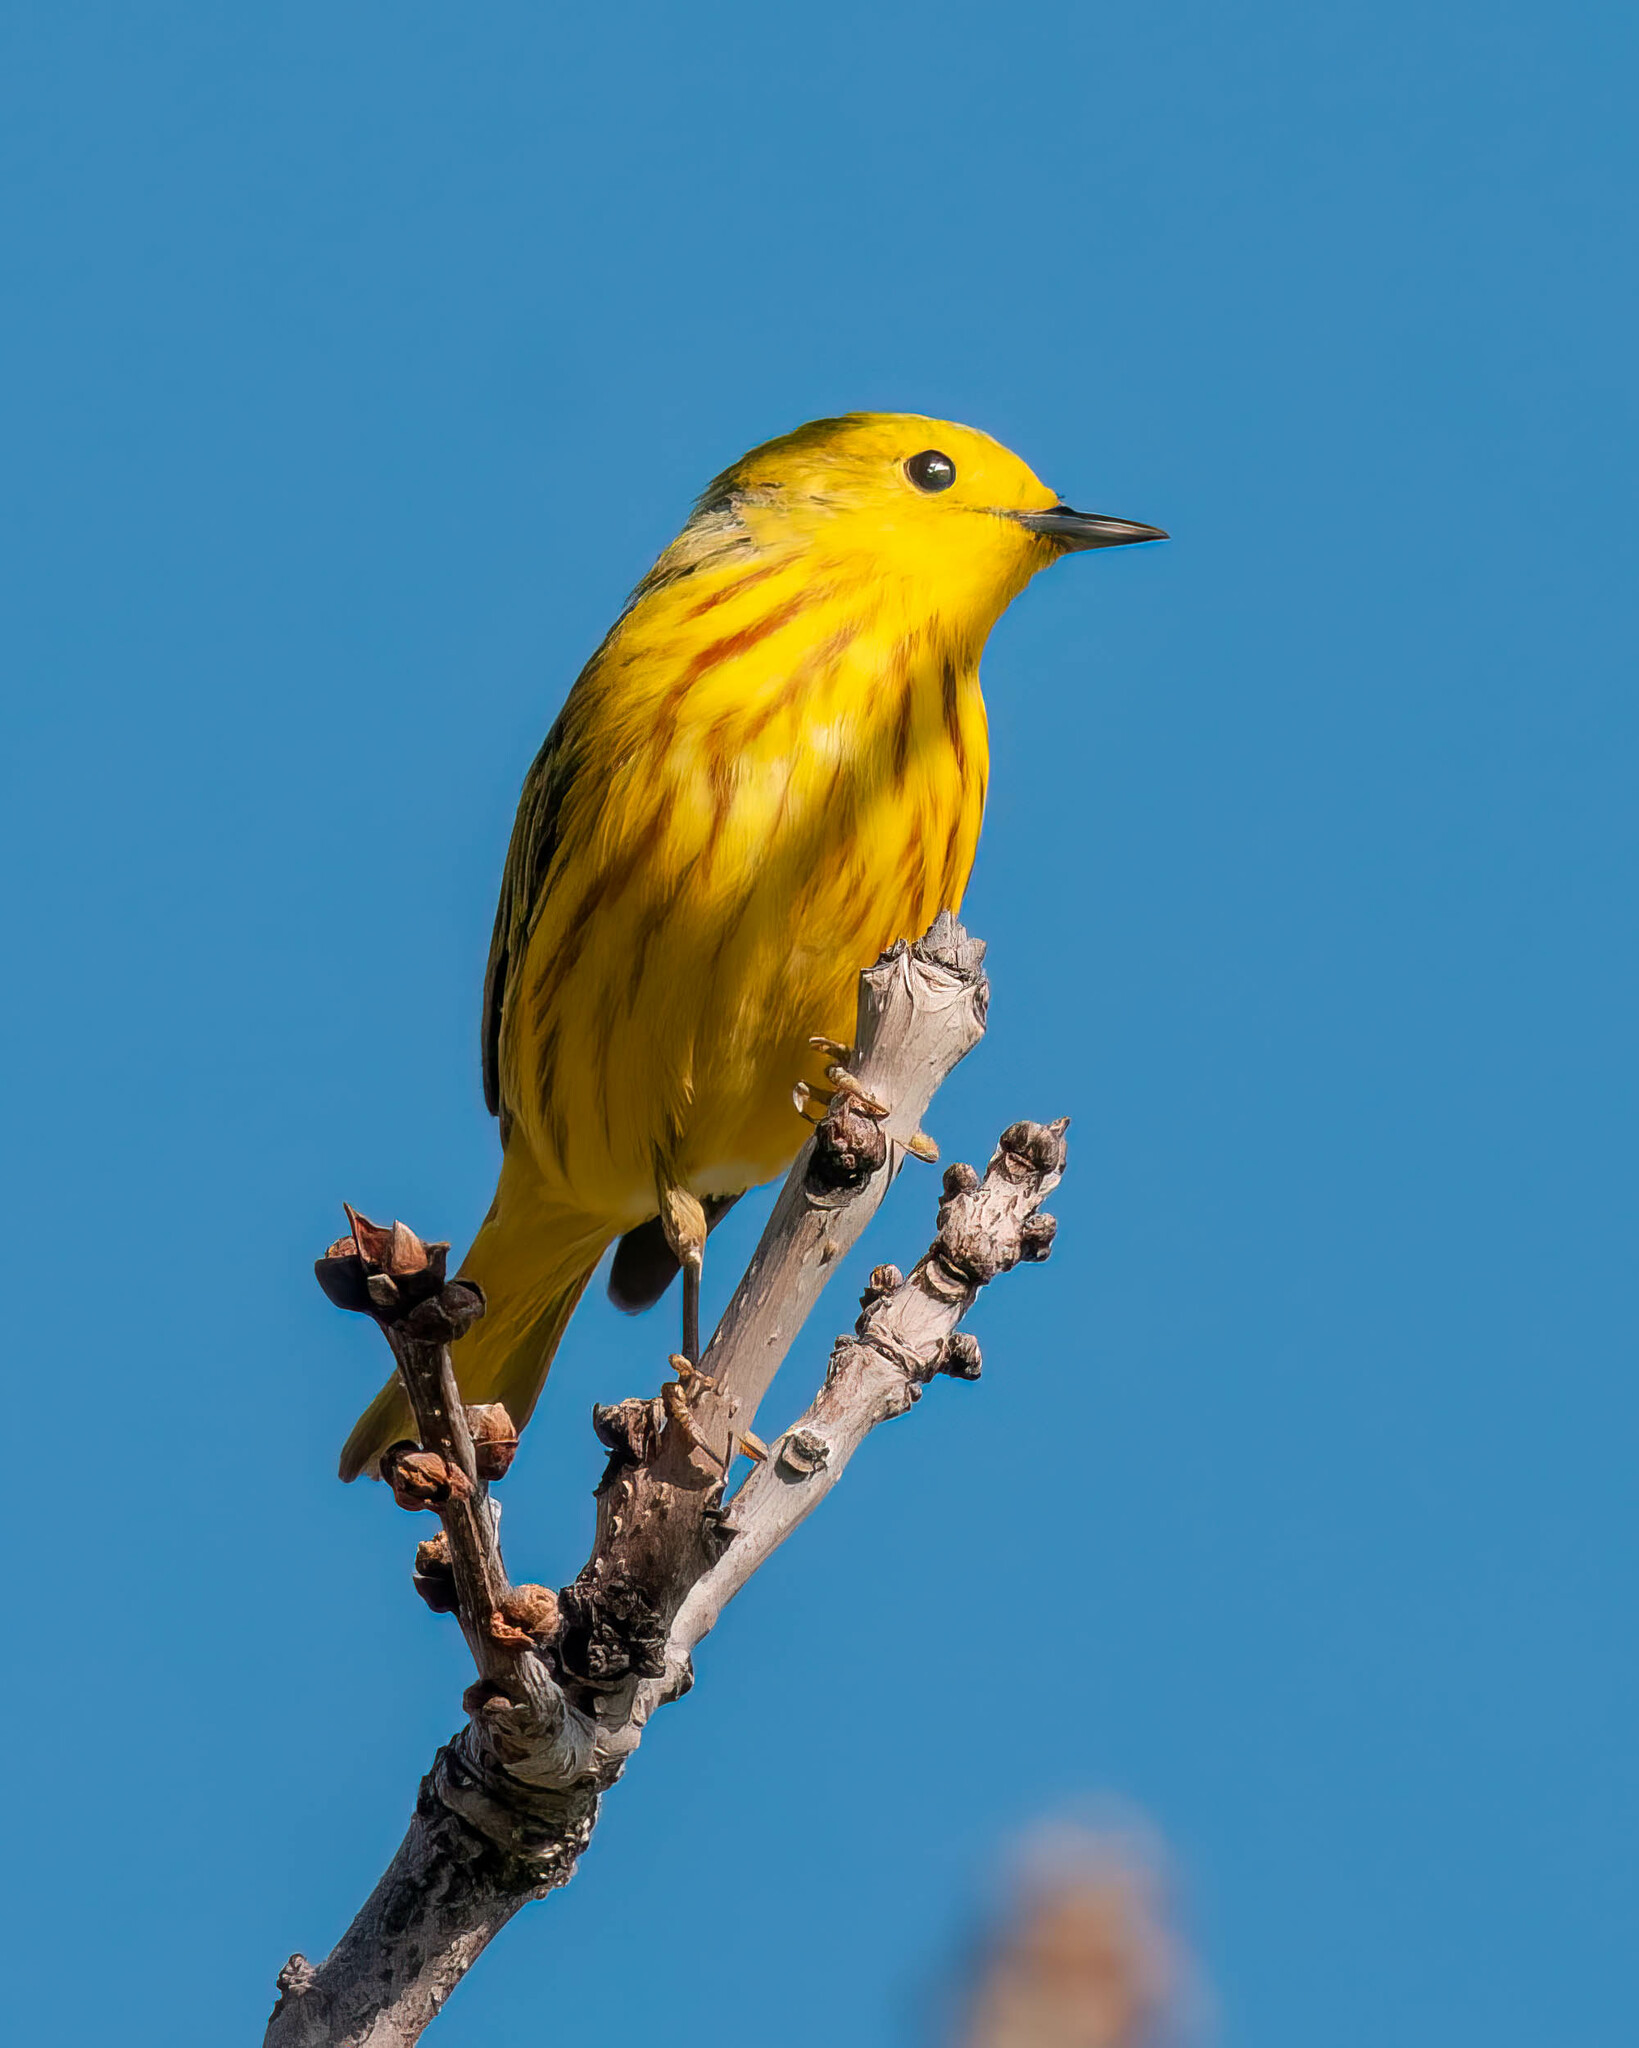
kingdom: Animalia
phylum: Chordata
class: Aves
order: Passeriformes
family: Parulidae
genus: Setophaga
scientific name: Setophaga petechia
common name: Yellow warbler
